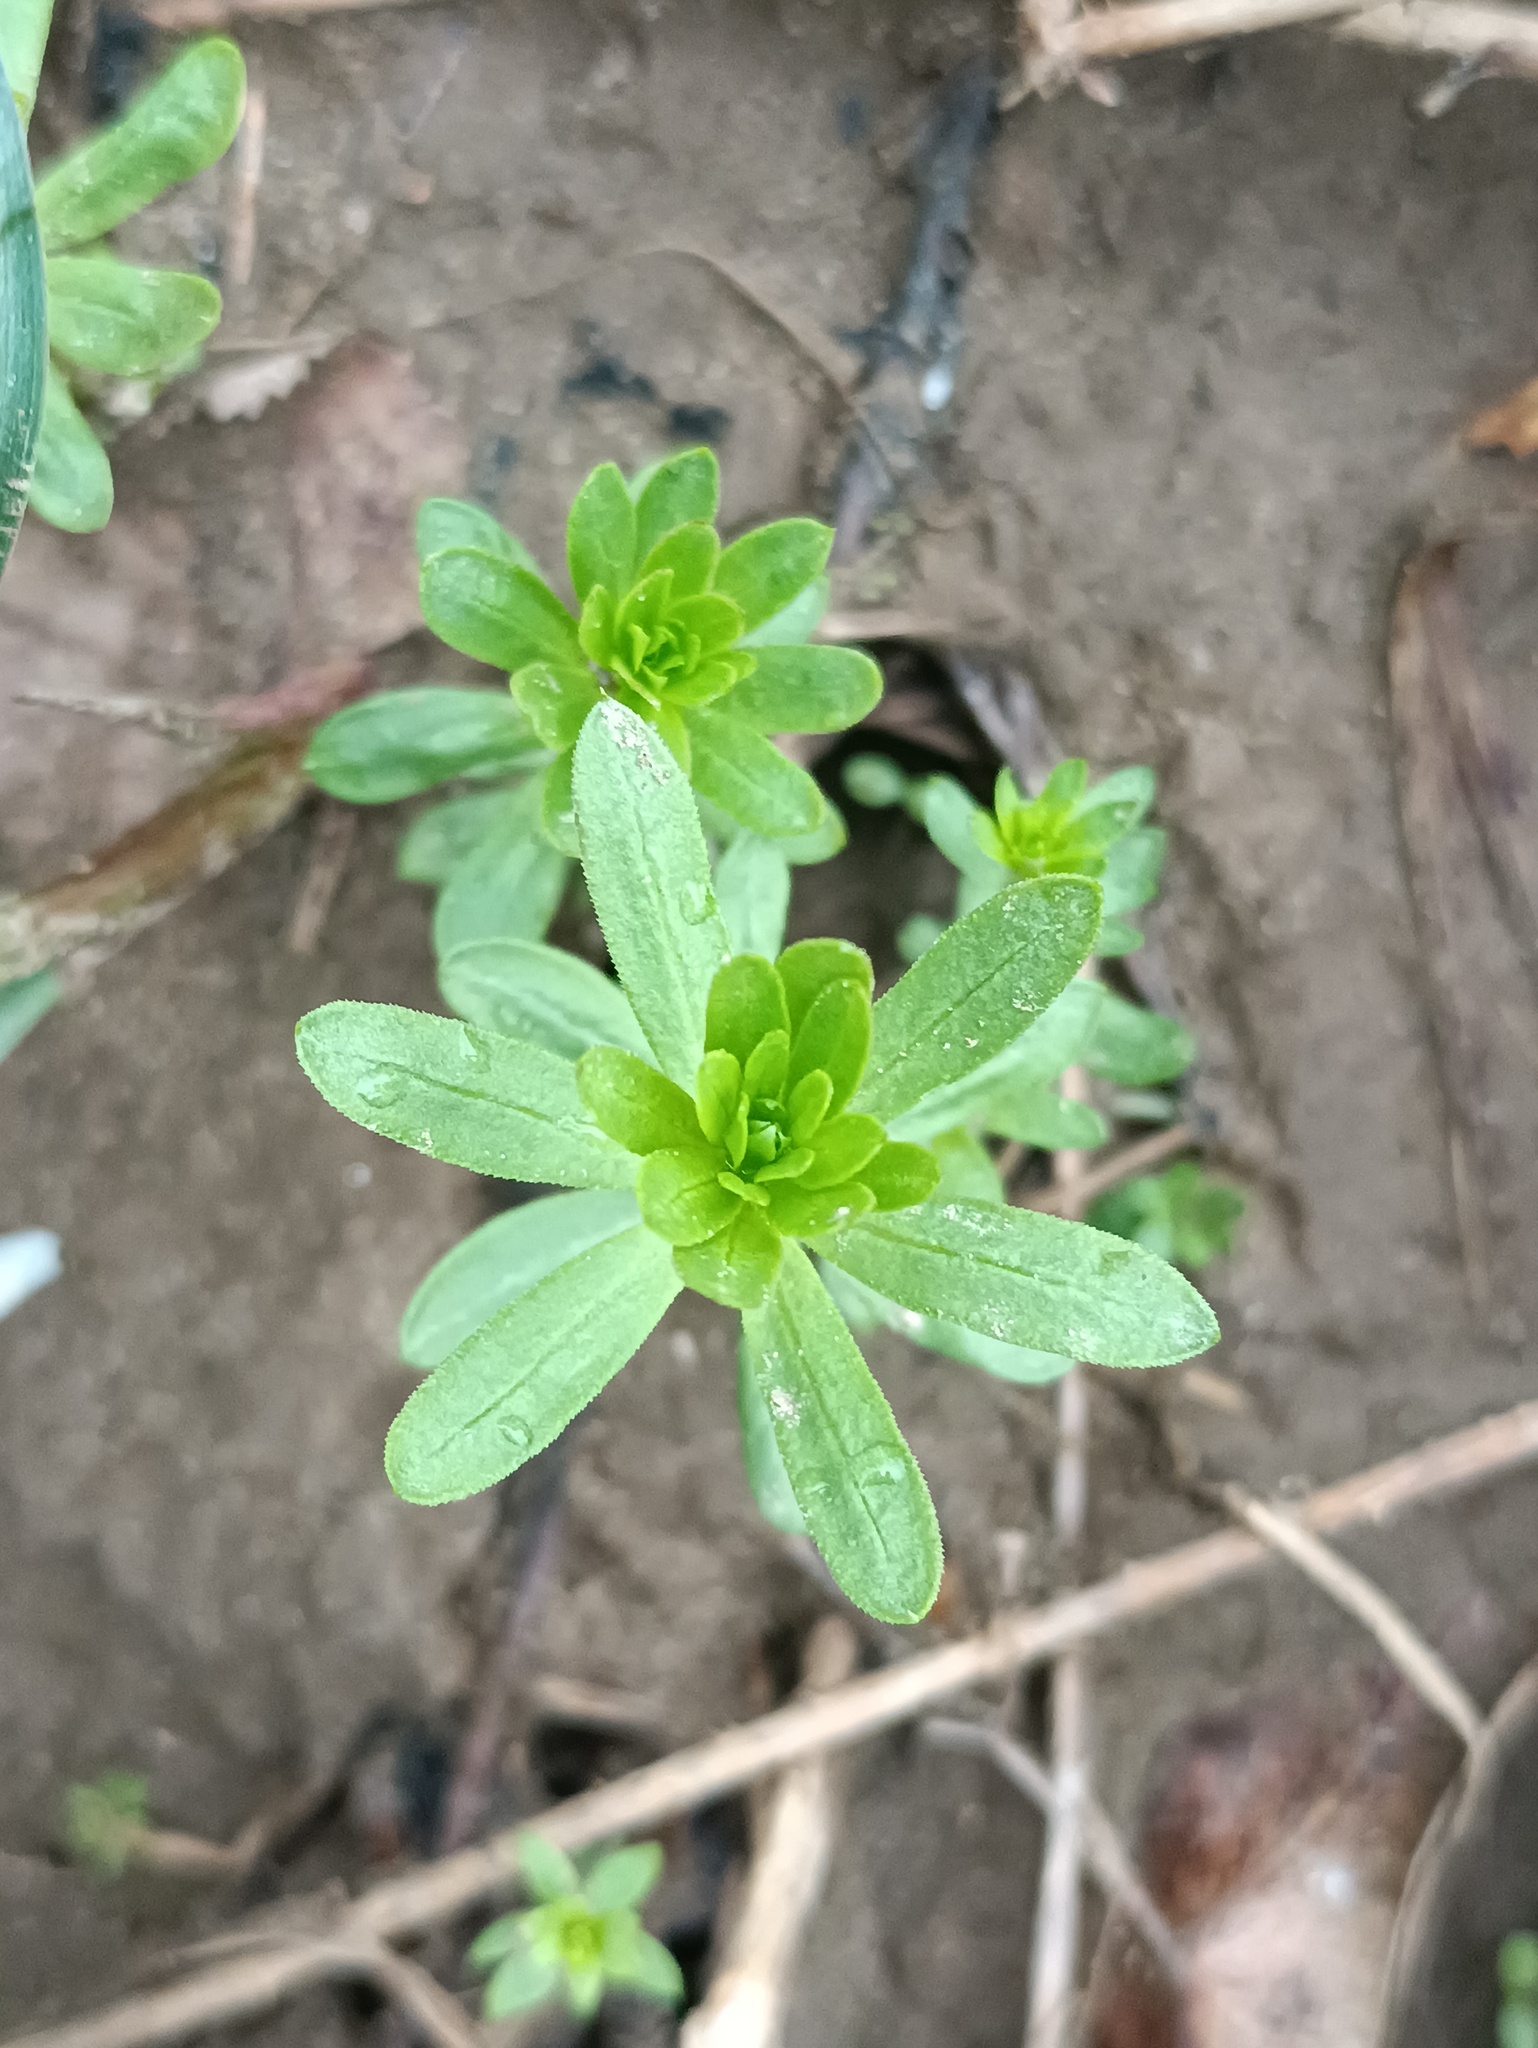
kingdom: Plantae
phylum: Tracheophyta
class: Magnoliopsida
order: Gentianales
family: Rubiaceae
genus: Galium
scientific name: Galium mollugo
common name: Hedge bedstraw
